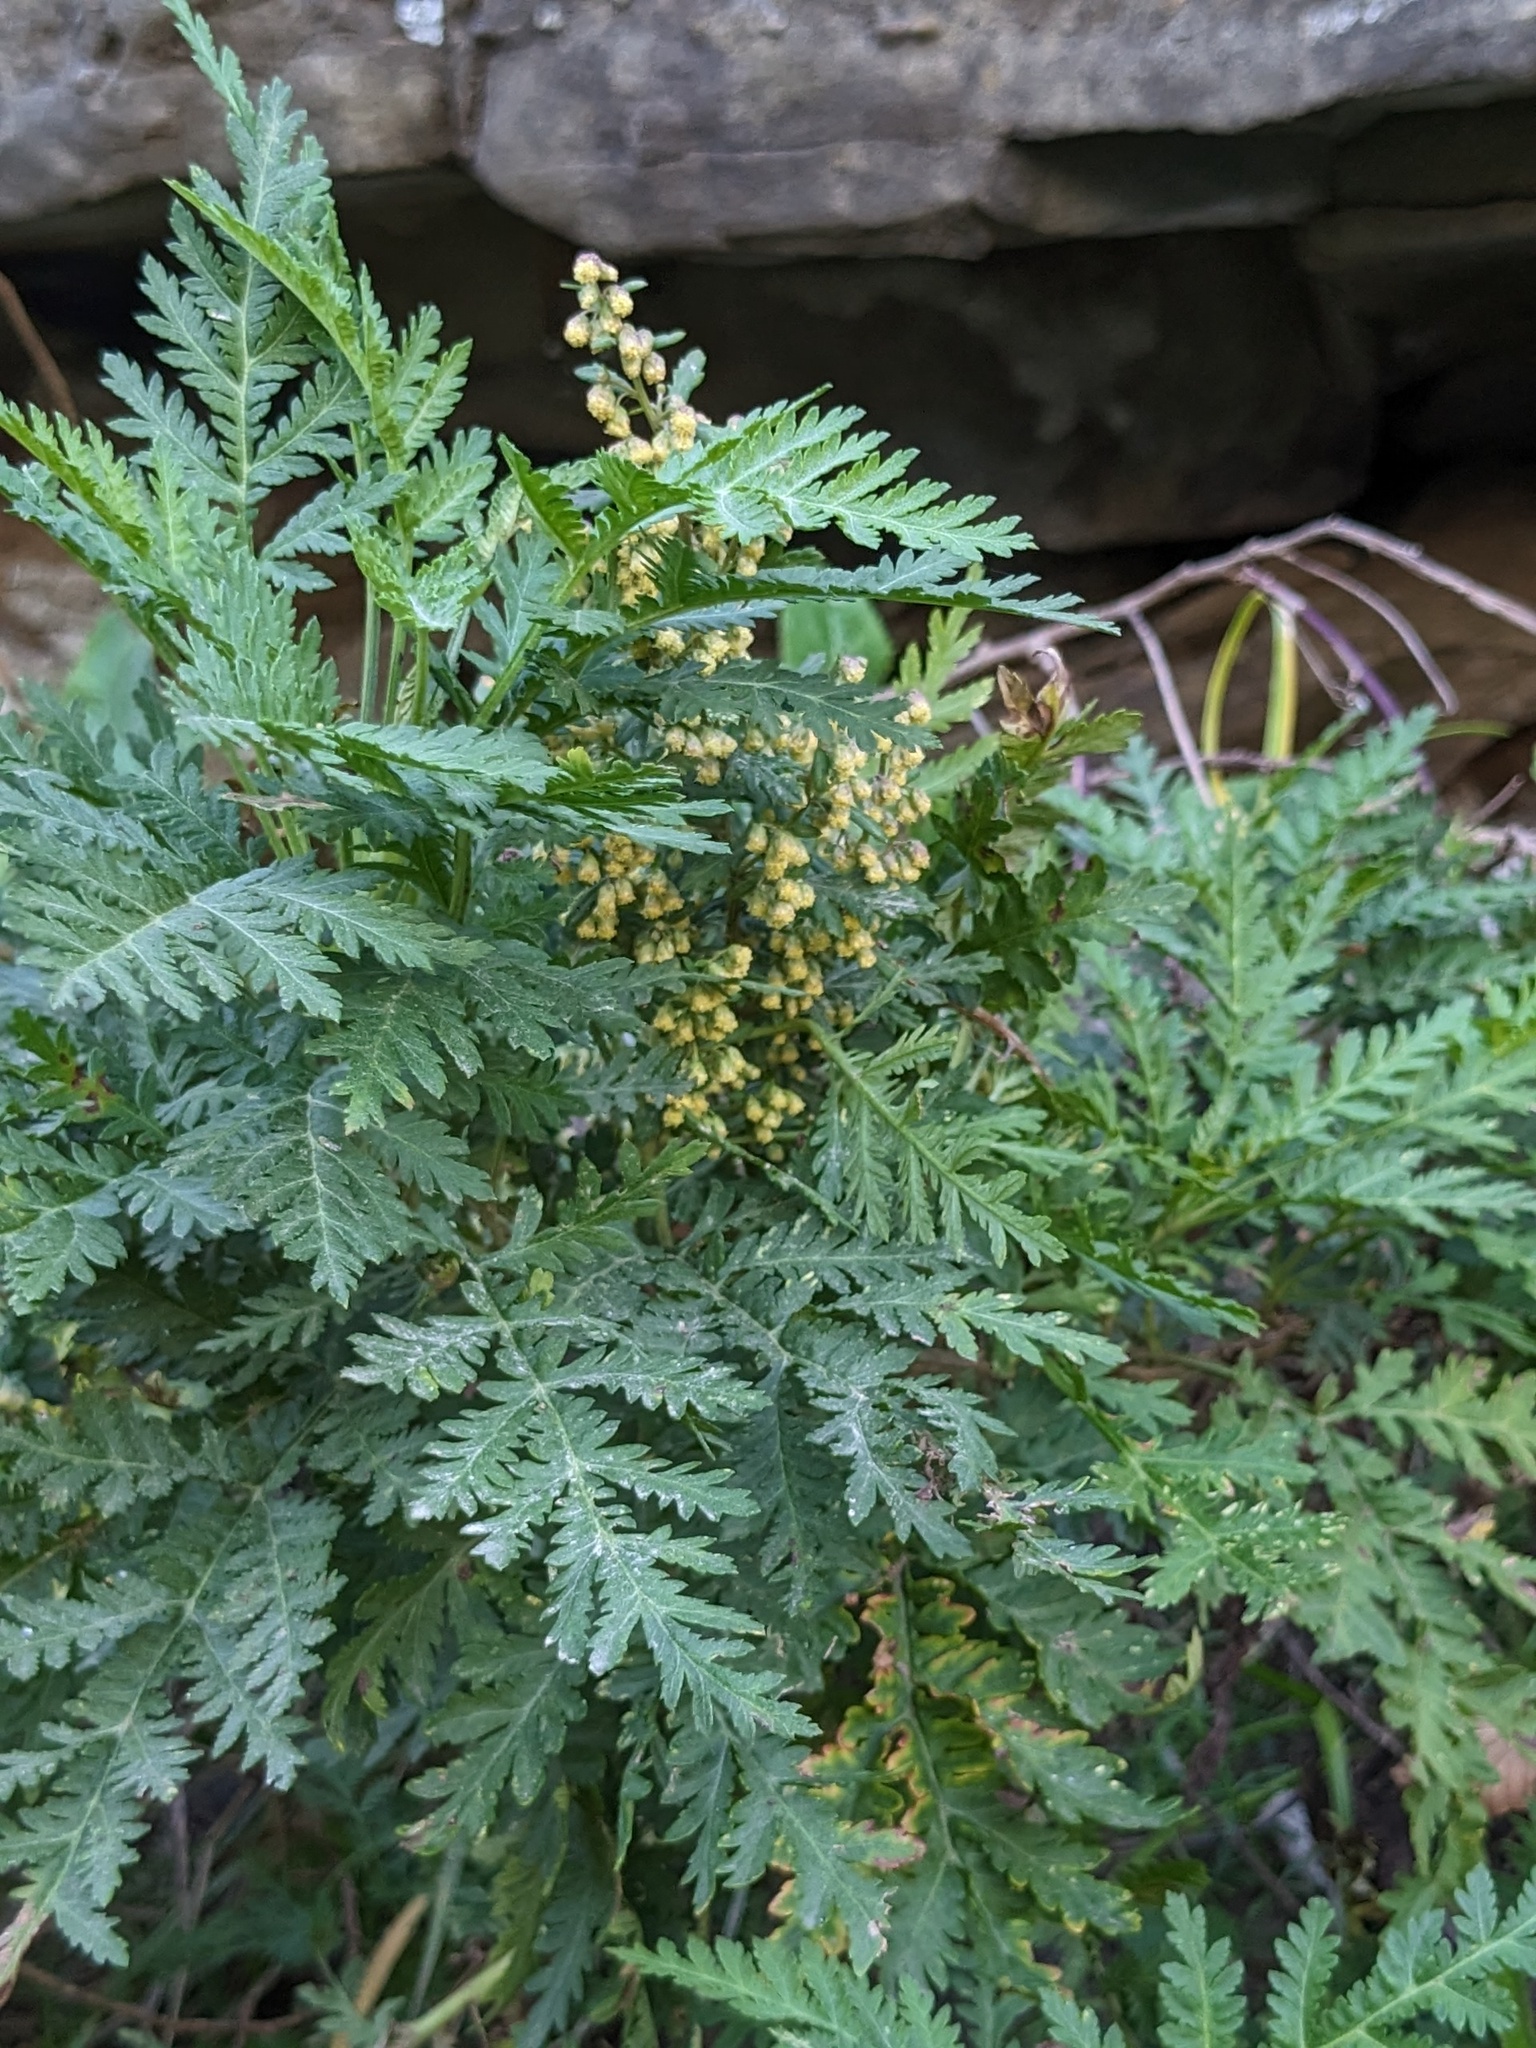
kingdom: Plantae
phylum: Tracheophyta
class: Magnoliopsida
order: Asterales
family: Asteraceae
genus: Artemisia
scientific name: Artemisia gmelinii
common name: Gmelin's wormwood
